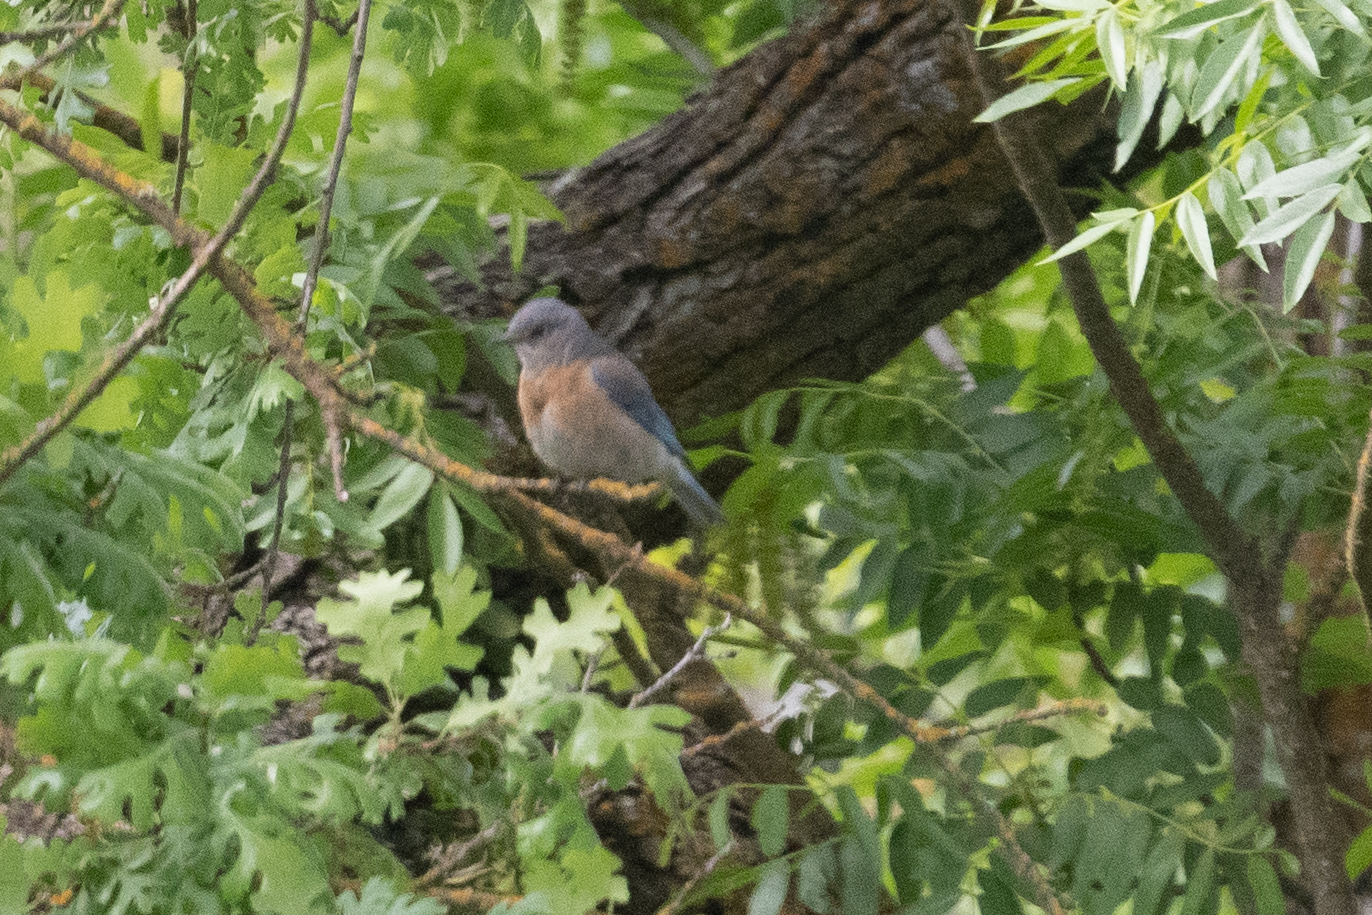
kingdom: Animalia
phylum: Chordata
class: Aves
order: Passeriformes
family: Turdidae
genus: Sialia
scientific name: Sialia mexicana
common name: Western bluebird
